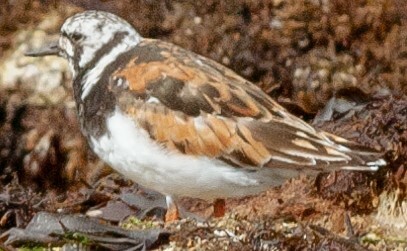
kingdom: Animalia
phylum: Chordata
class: Aves
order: Charadriiformes
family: Scolopacidae
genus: Arenaria
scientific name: Arenaria interpres
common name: Ruddy turnstone
